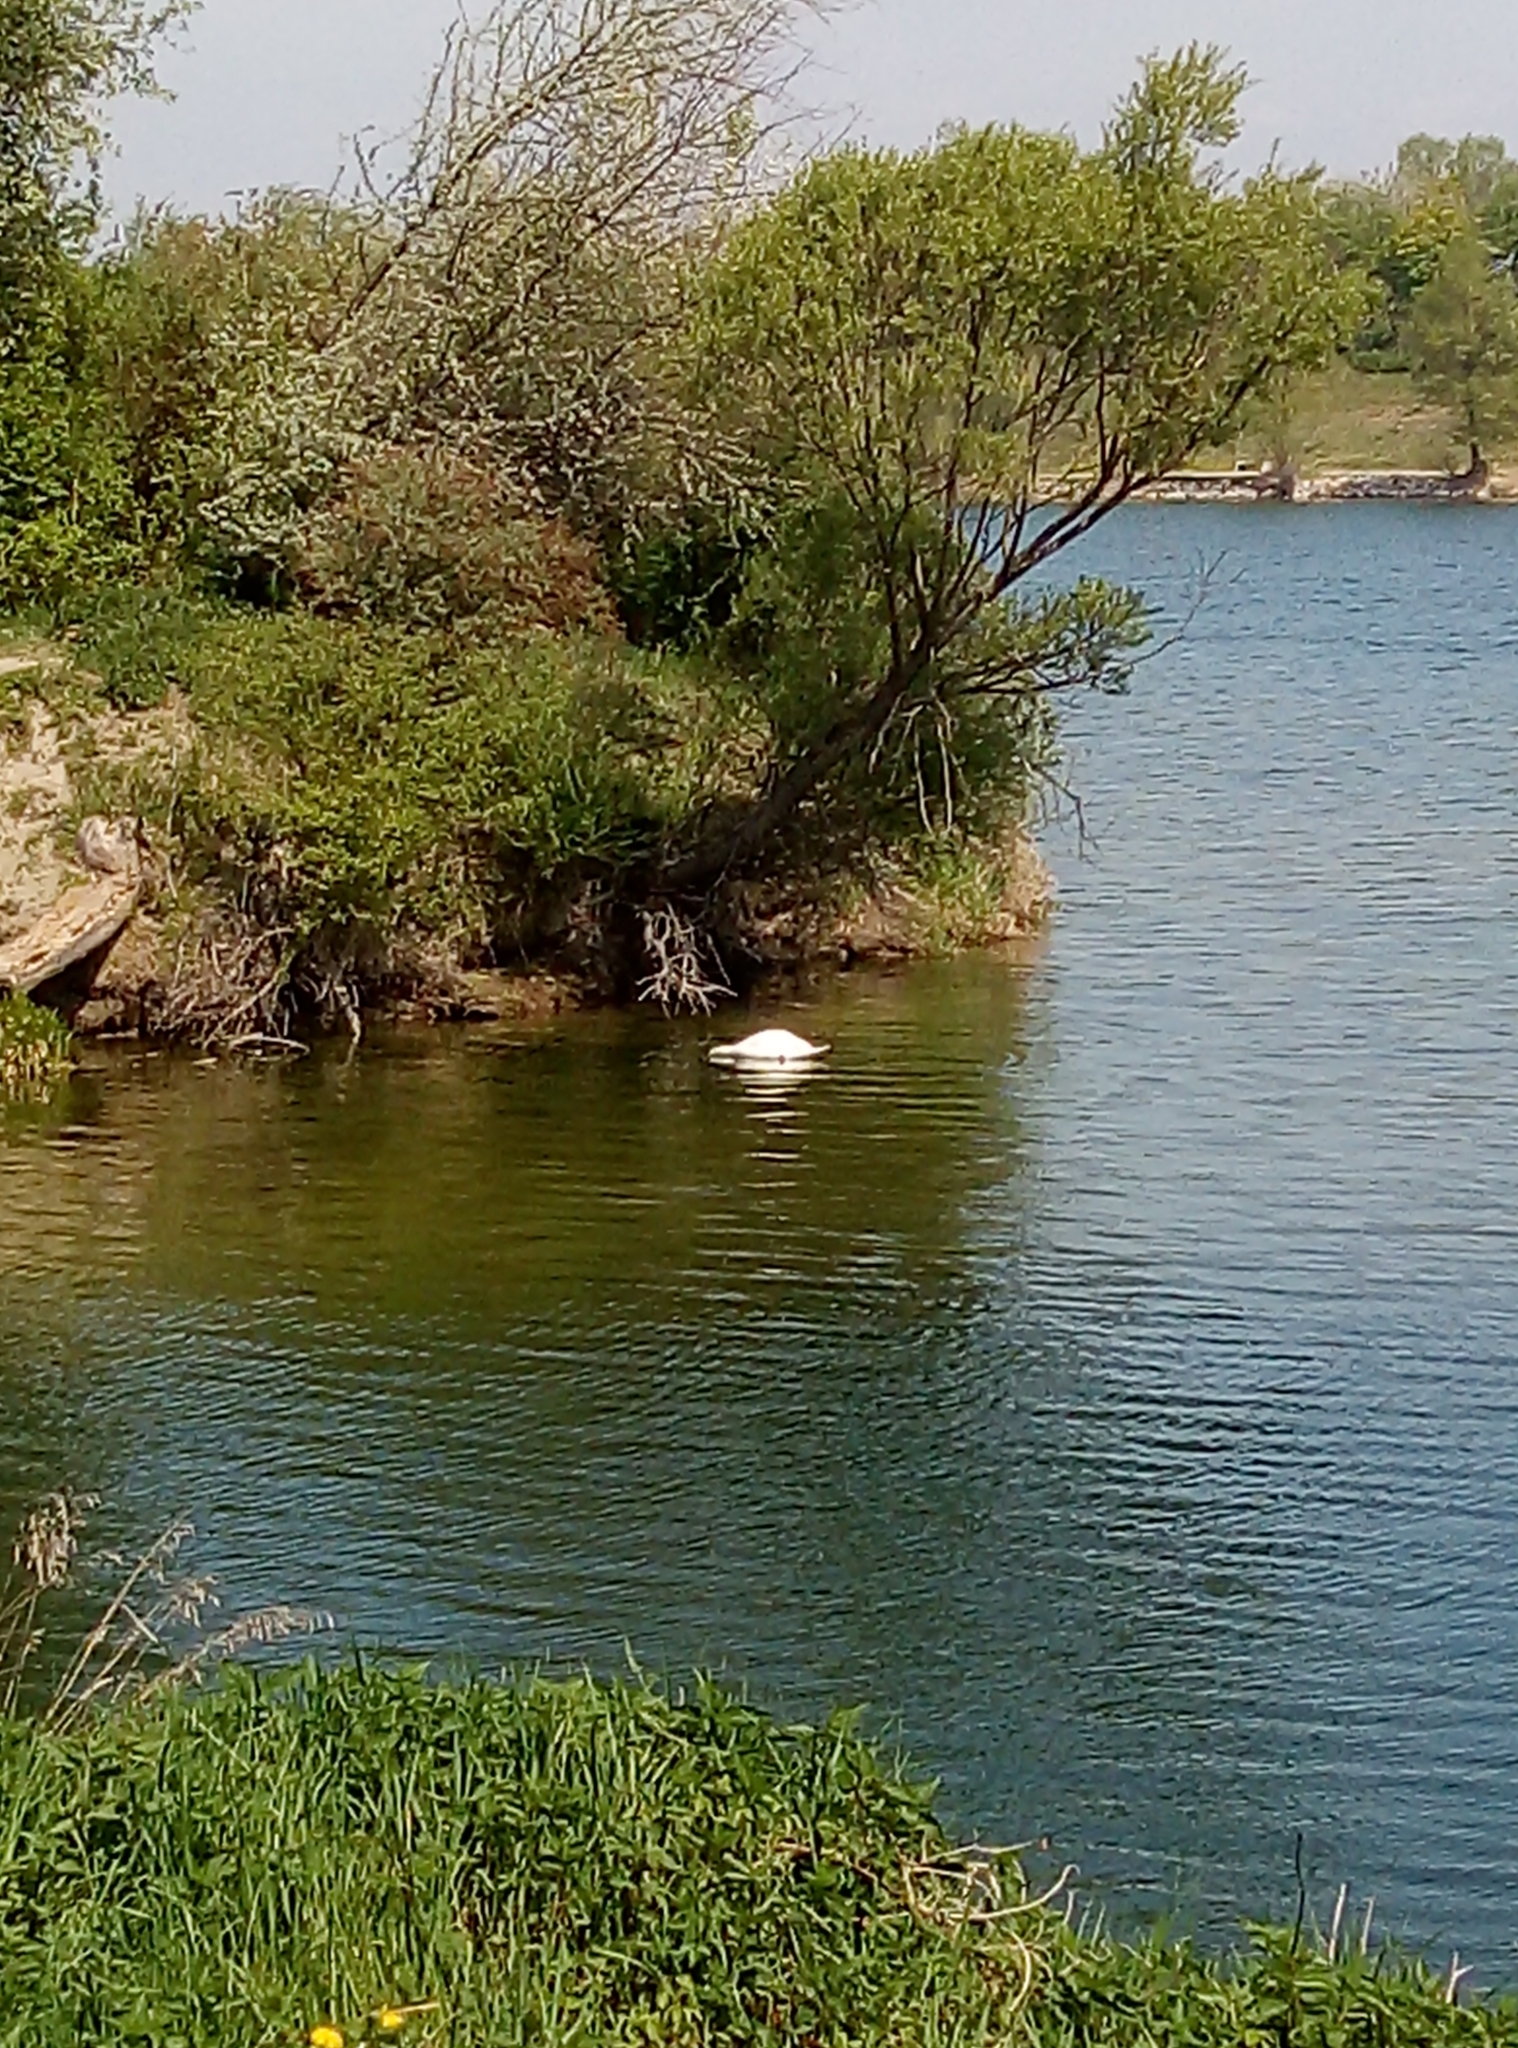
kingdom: Animalia
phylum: Chordata
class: Aves
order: Anseriformes
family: Anatidae
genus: Cygnus
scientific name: Cygnus olor
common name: Mute swan
